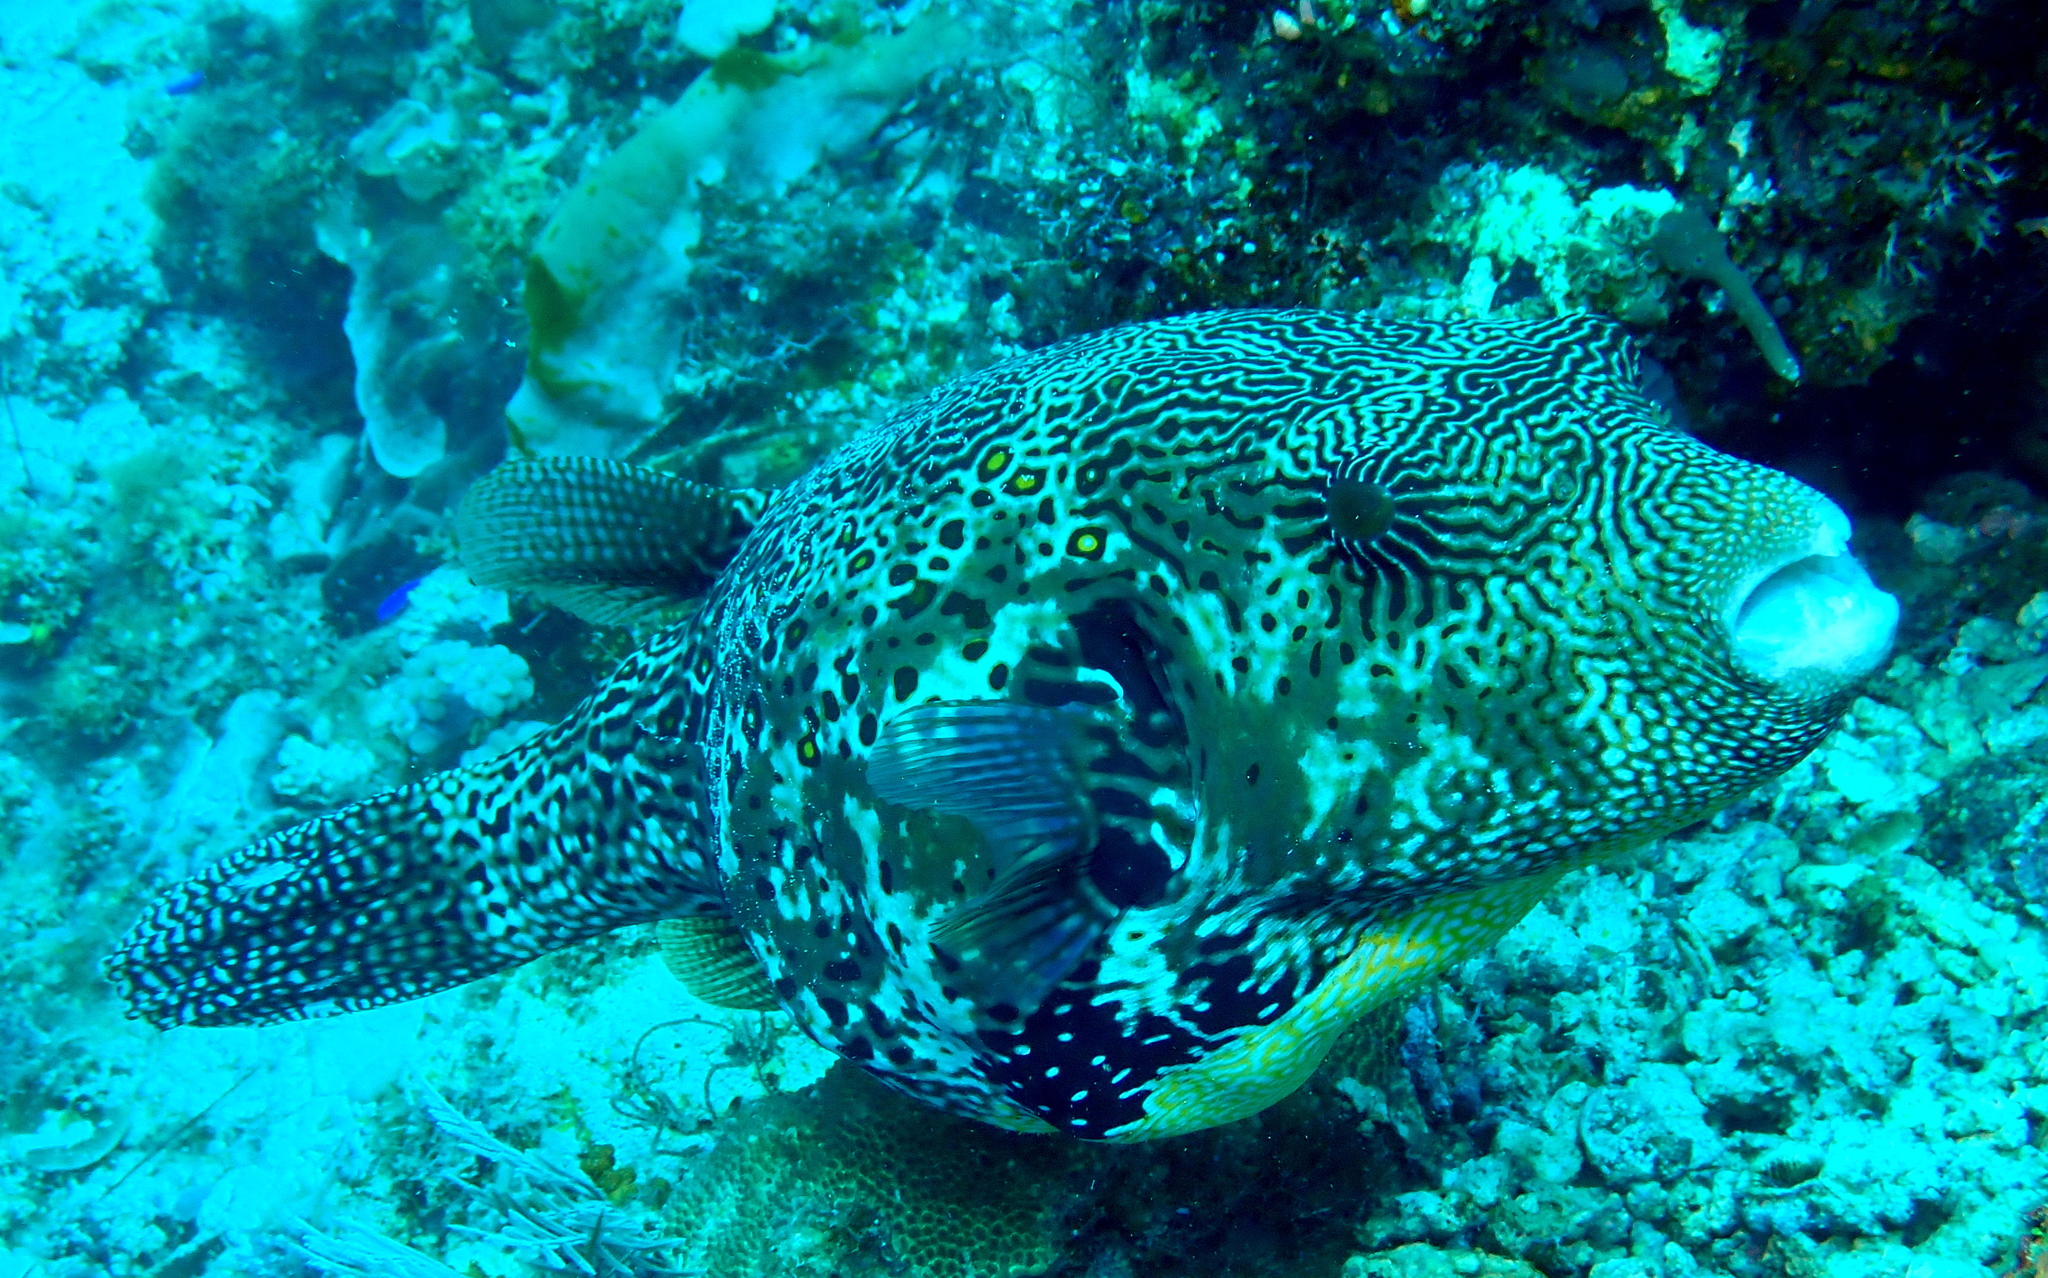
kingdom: Animalia
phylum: Chordata
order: Tetraodontiformes
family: Tetraodontidae
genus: Arothron
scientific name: Arothron mappa
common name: Map blaasop
